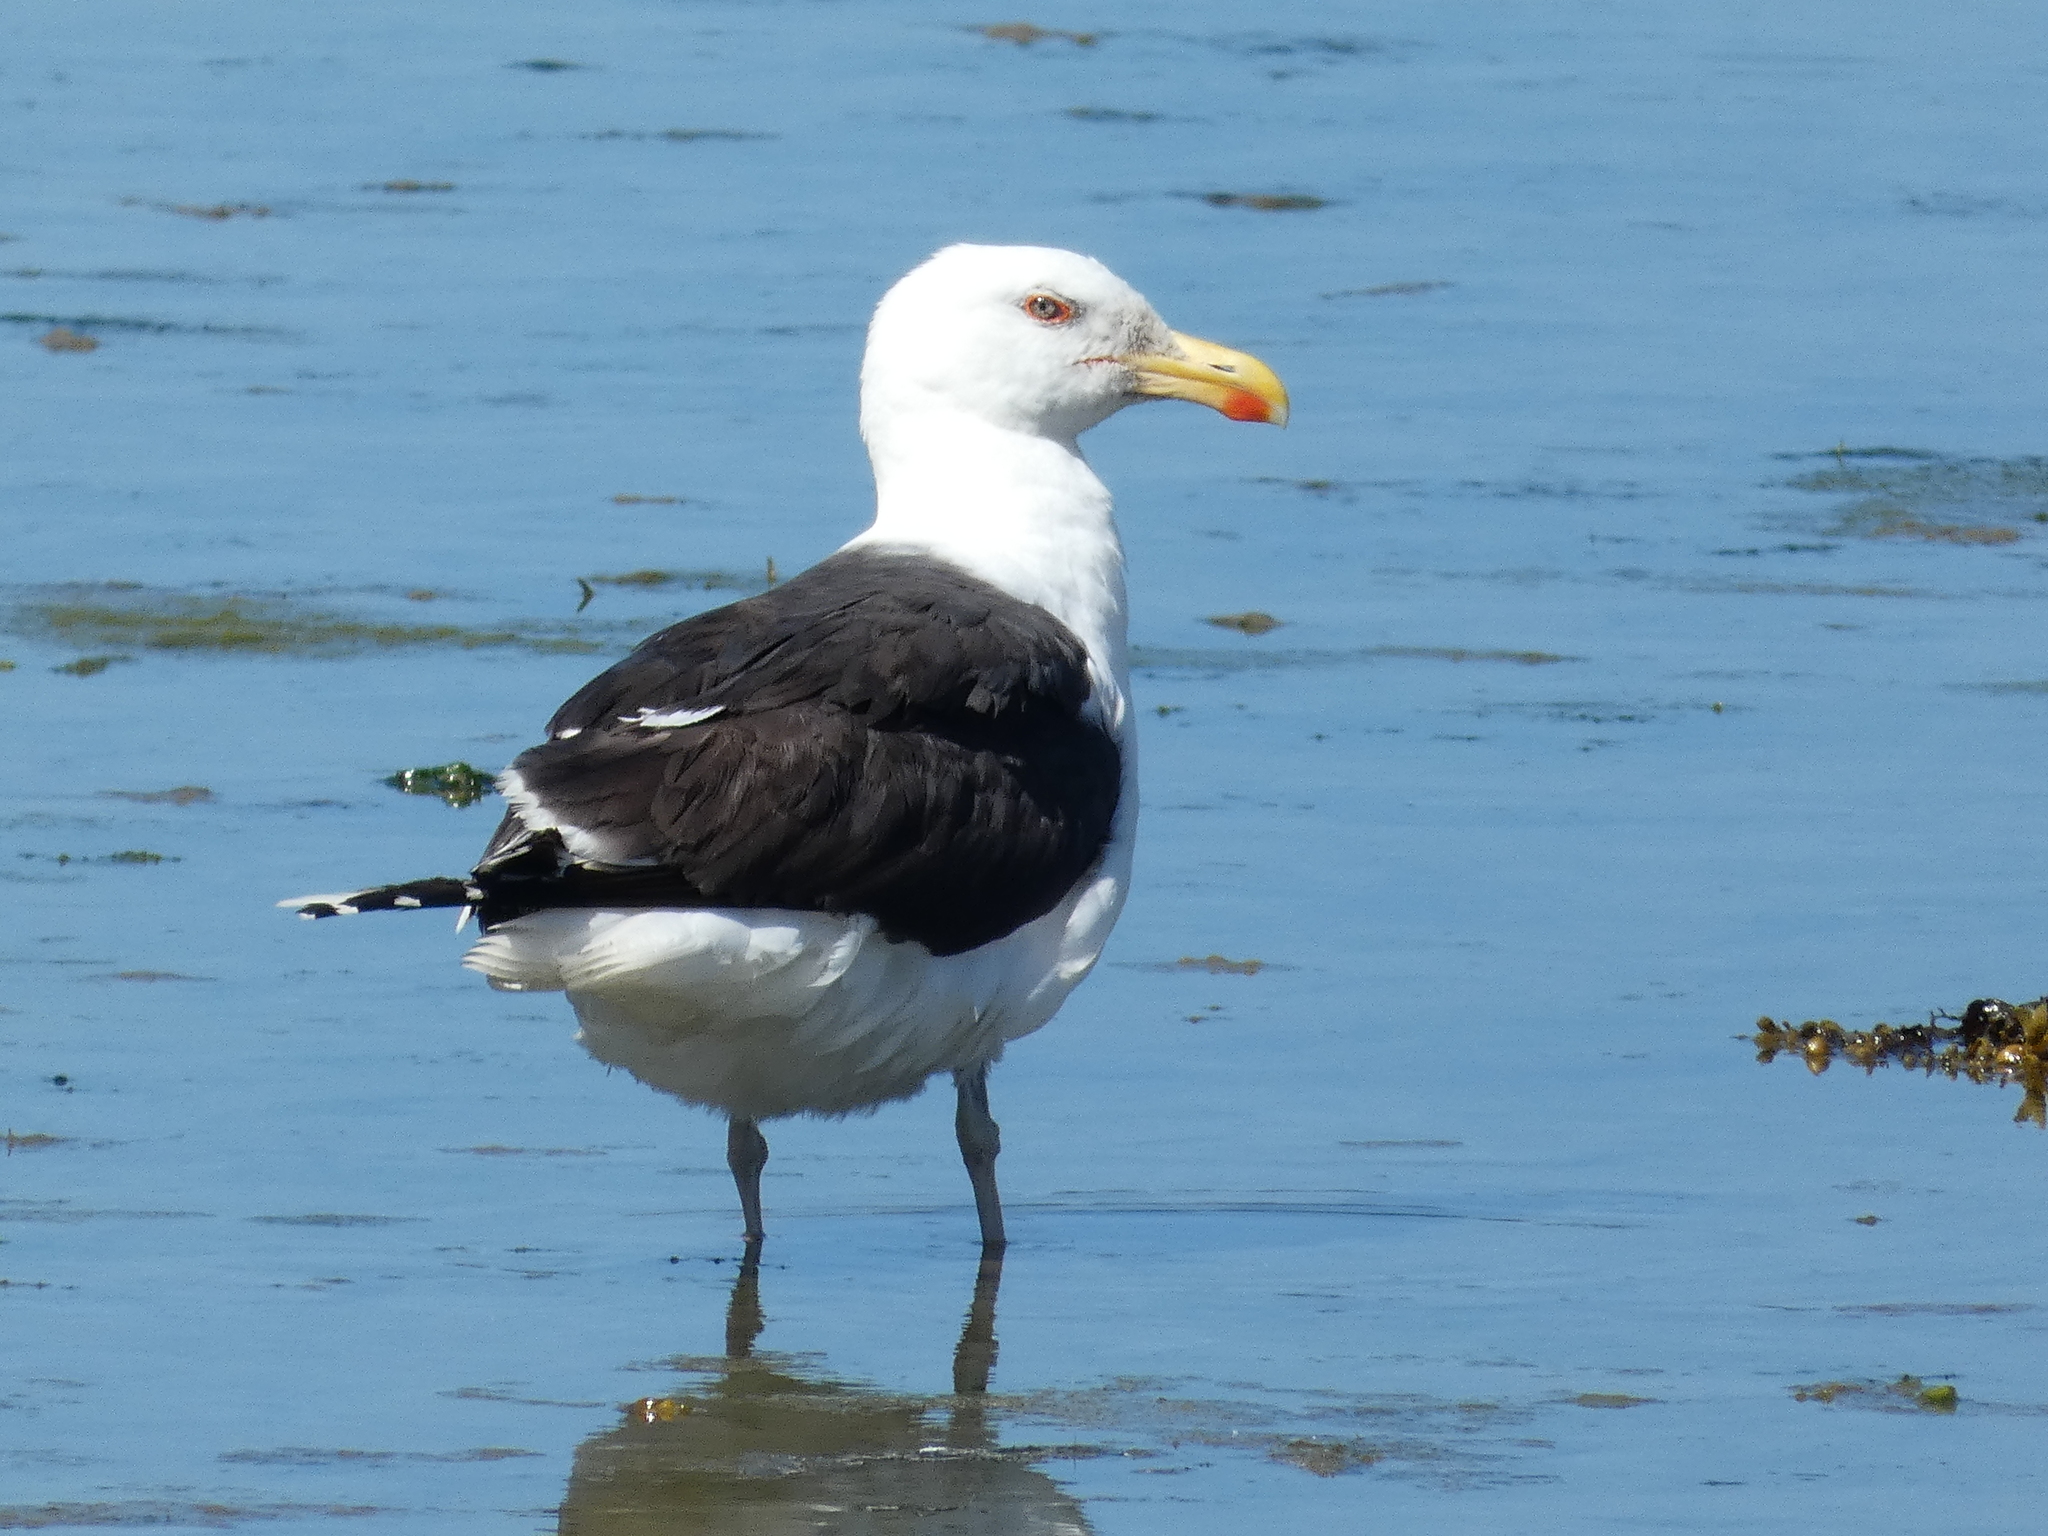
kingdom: Animalia
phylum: Chordata
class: Aves
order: Charadriiformes
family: Laridae
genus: Larus
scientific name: Larus marinus
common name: Great black-backed gull
